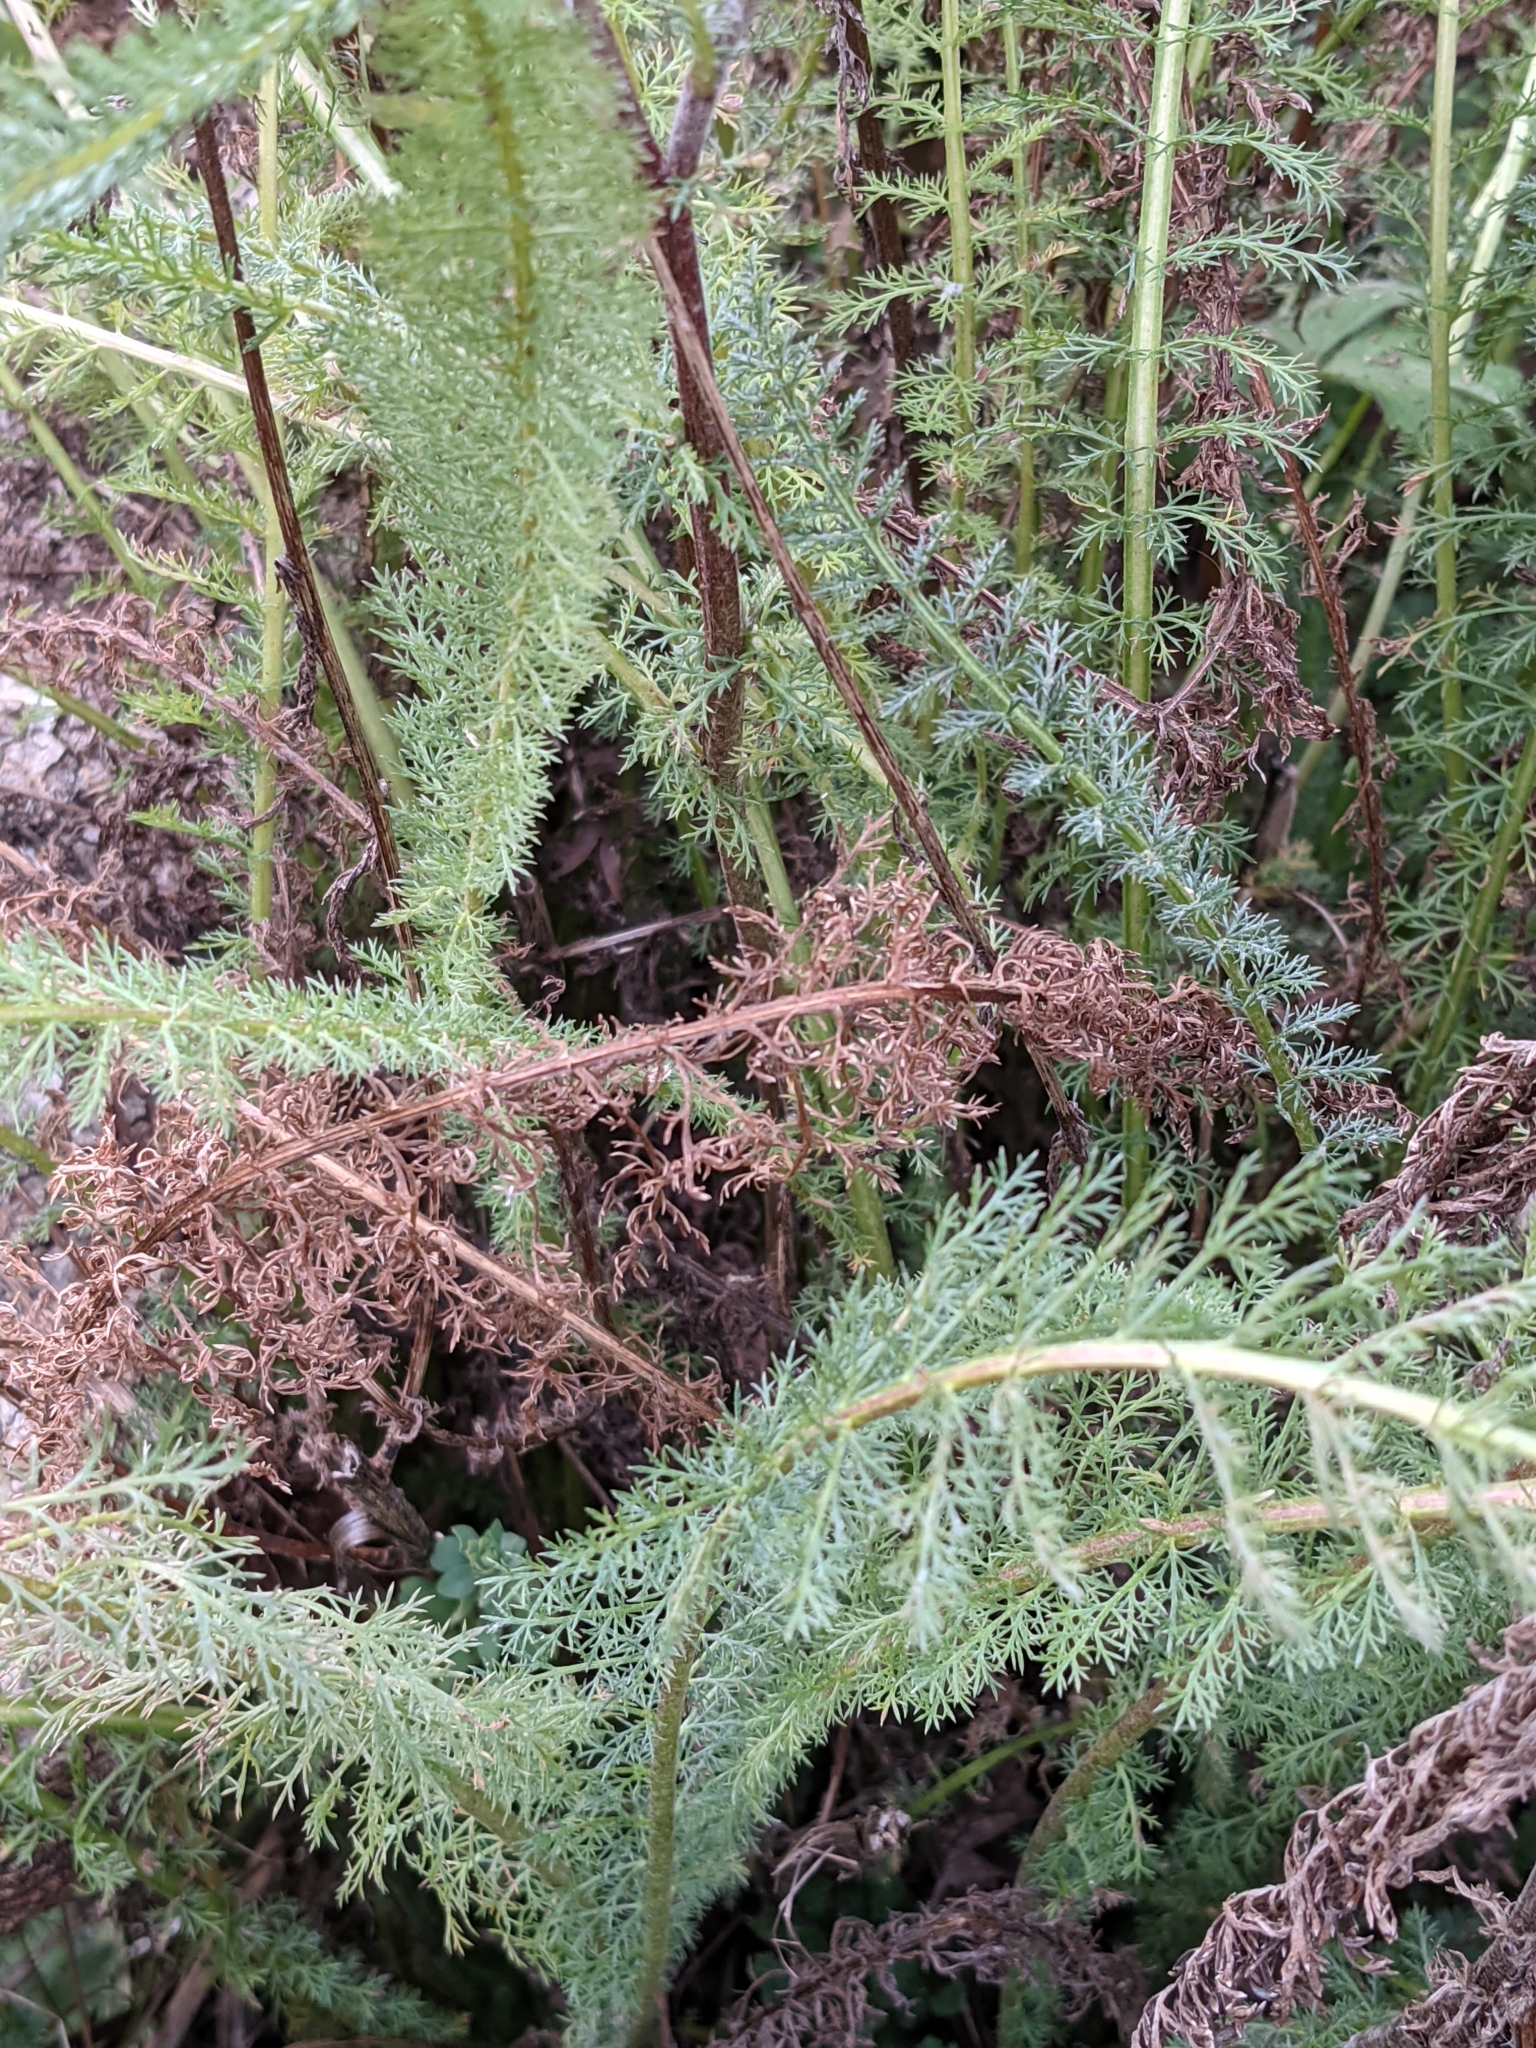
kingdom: Plantae
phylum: Tracheophyta
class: Magnoliopsida
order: Asterales
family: Asteraceae
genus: Achillea
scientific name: Achillea millefolium
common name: Yarrow
